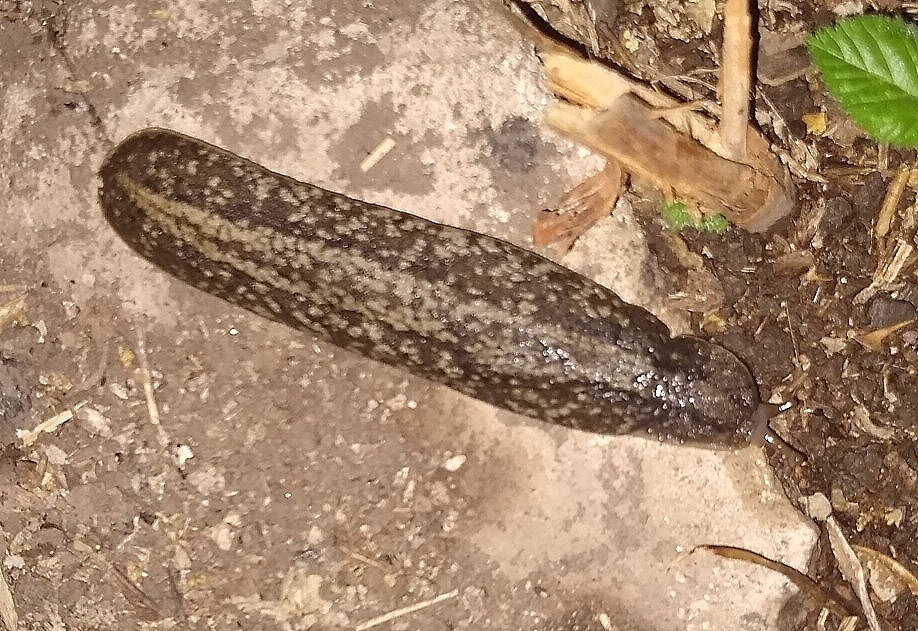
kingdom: Animalia
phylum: Mollusca
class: Gastropoda
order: Systellommatophora
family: Veronicellidae
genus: Phyllocaulis
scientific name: Phyllocaulis soleiformis
